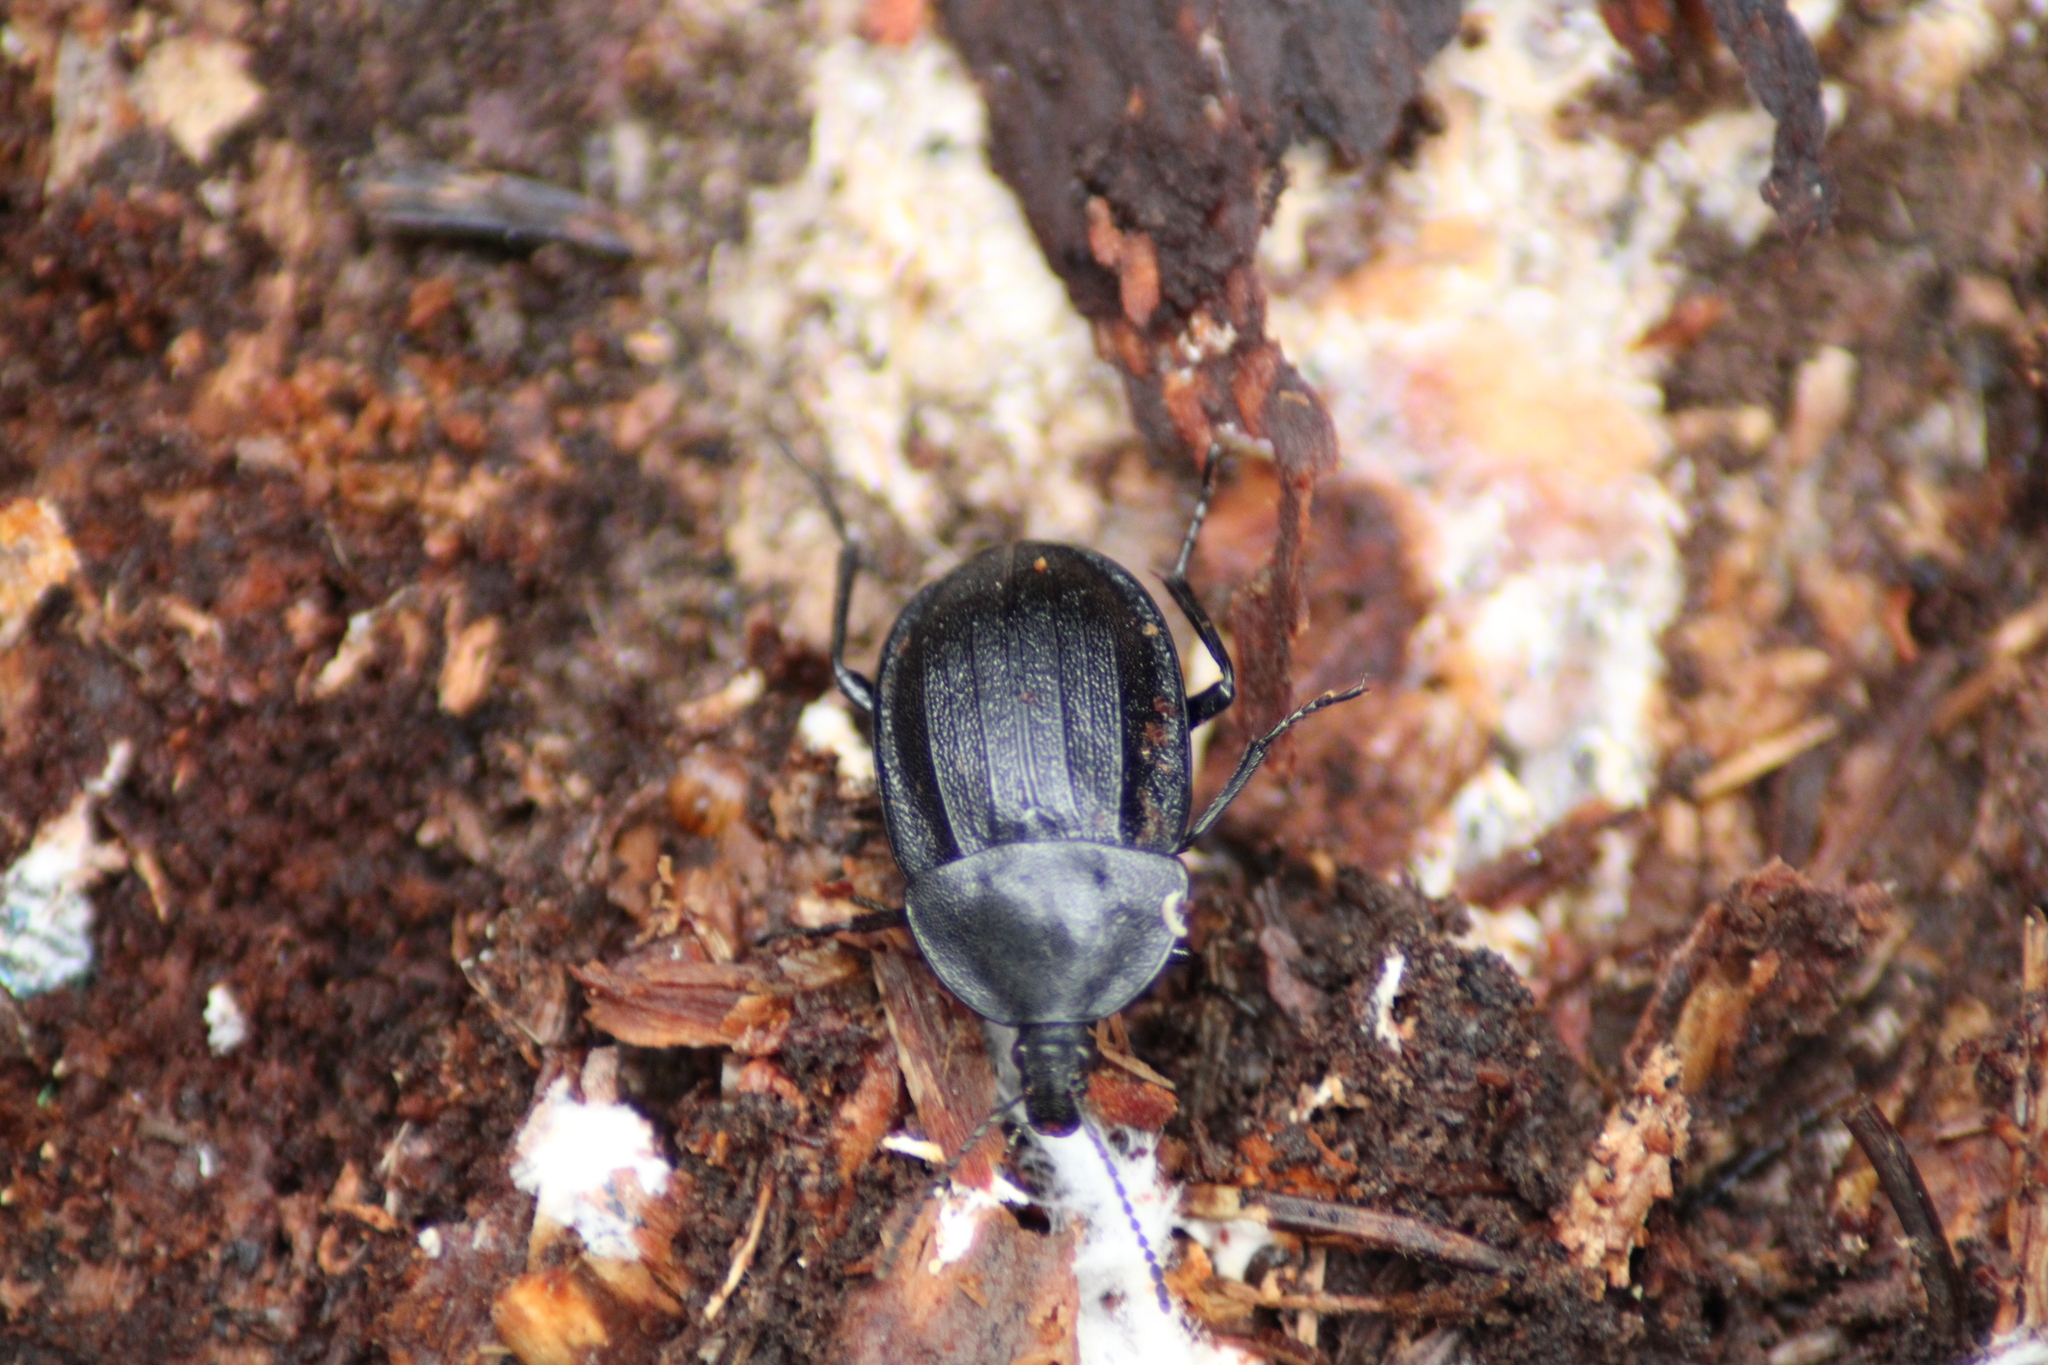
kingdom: Animalia
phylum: Arthropoda
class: Insecta
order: Coleoptera
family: Staphylinidae
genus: Silpha
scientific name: Silpha atrata
